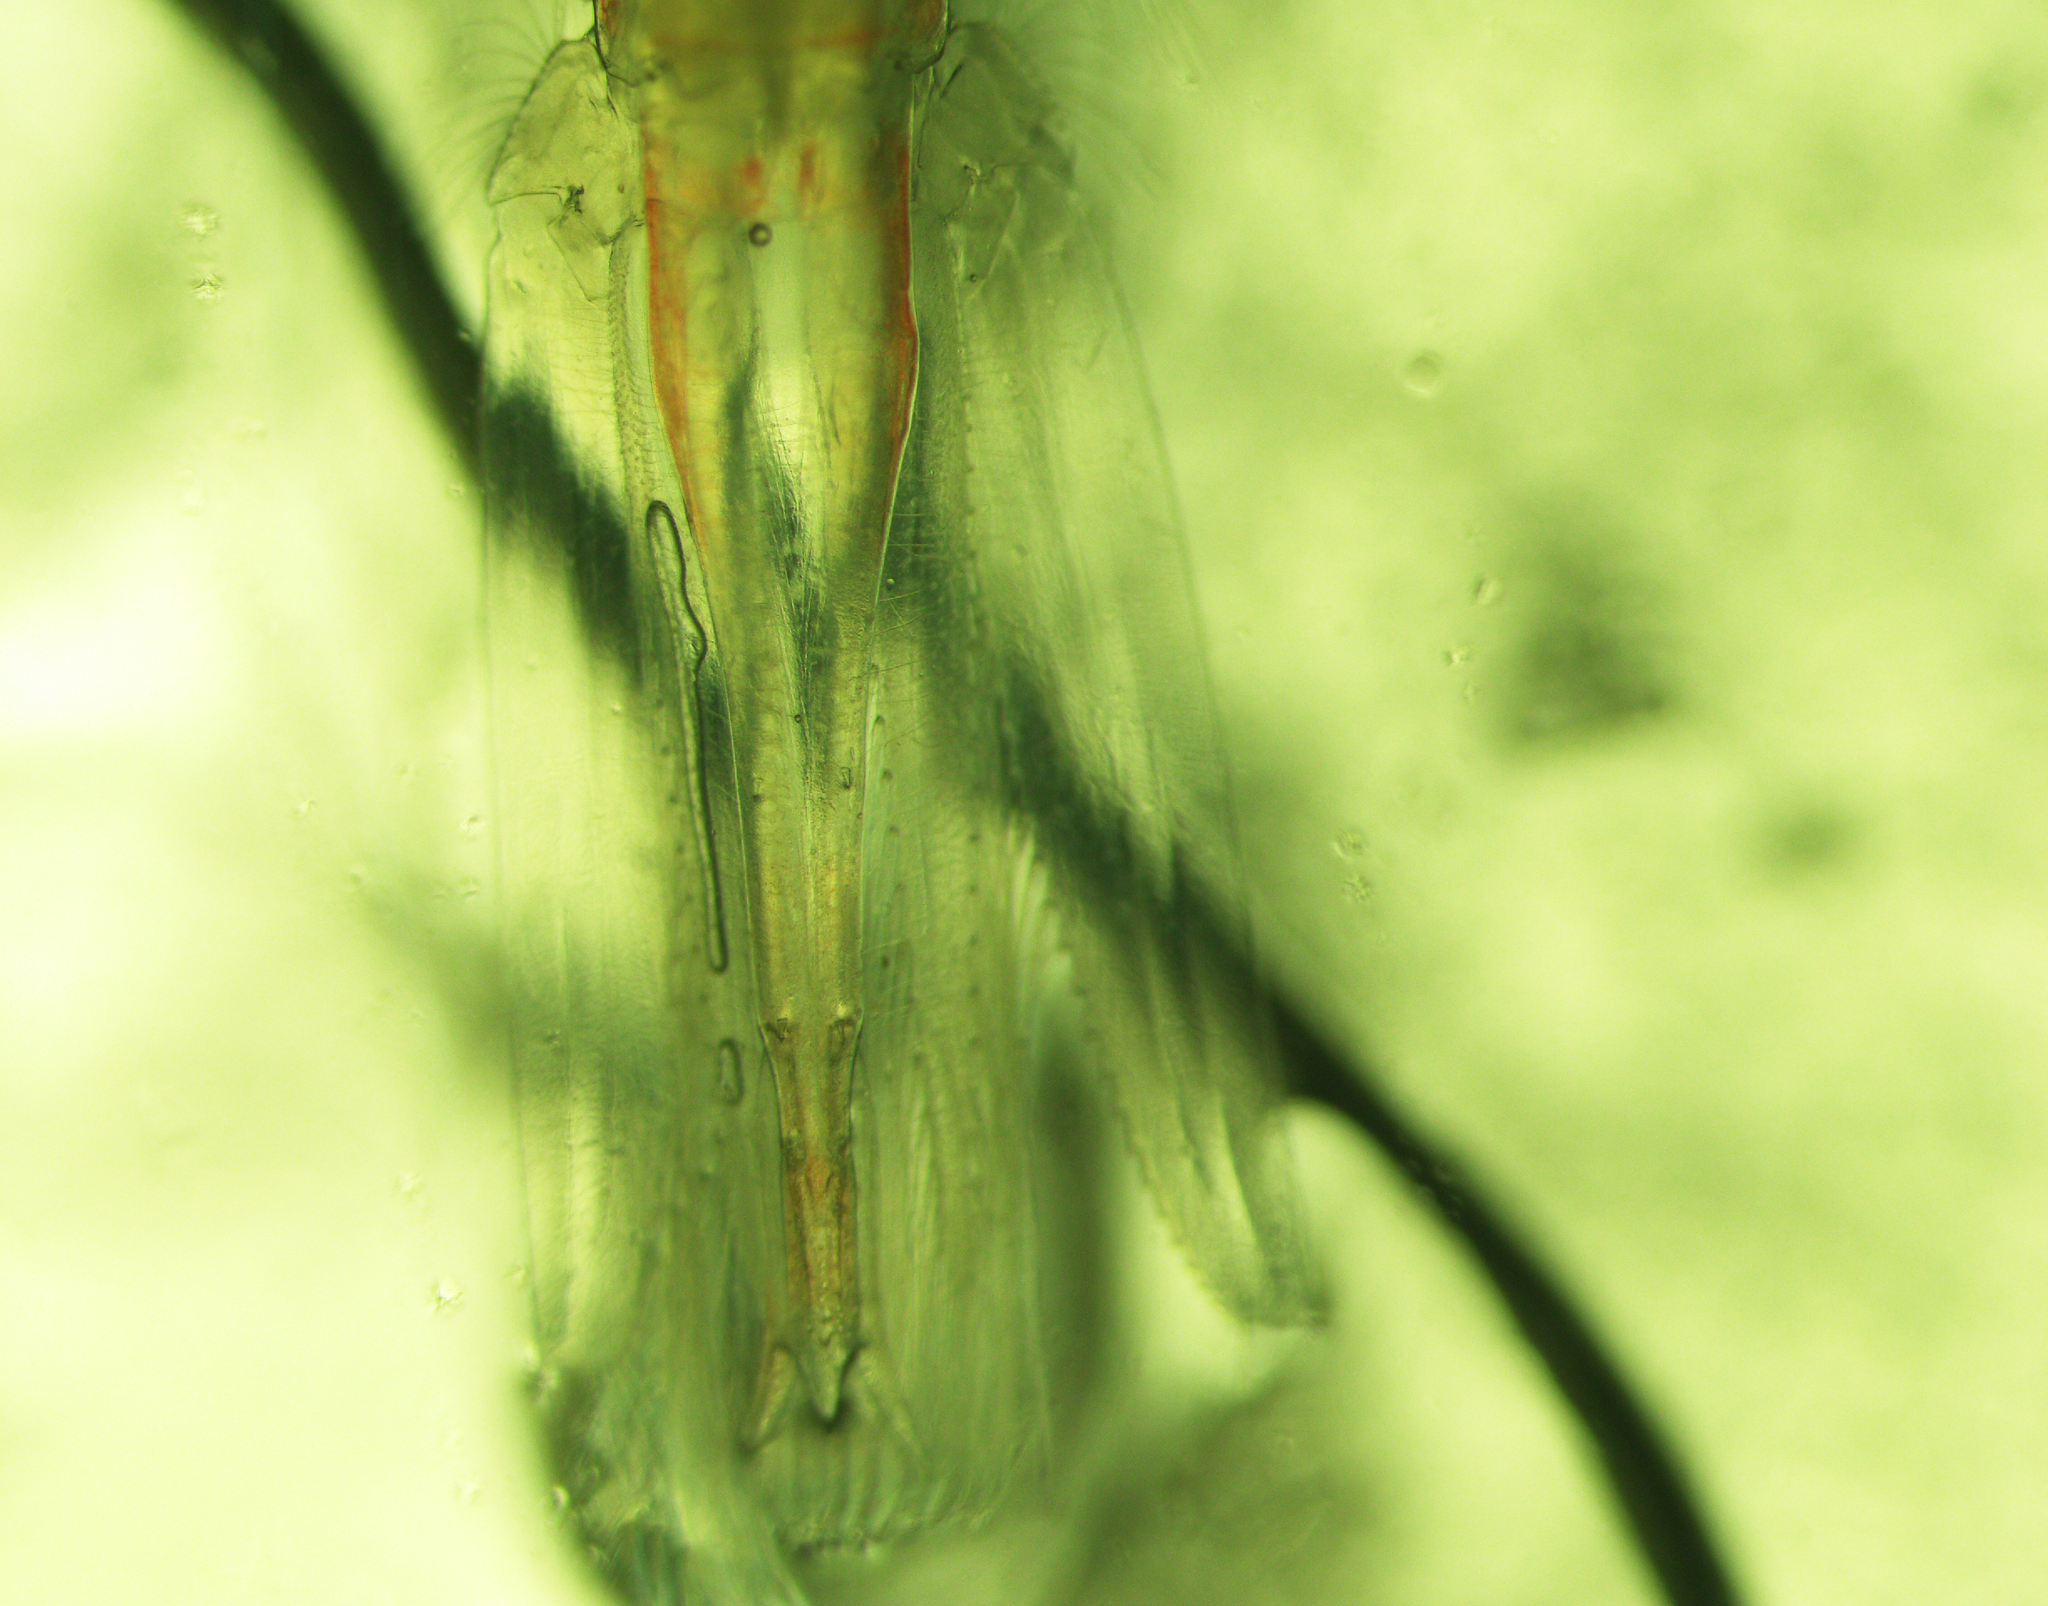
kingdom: Animalia
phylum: Arthropoda
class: Malacostraca
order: Euphausiacea
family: Euphausiidae
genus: Meganyctiphanes
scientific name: Meganyctiphanes norvegica
